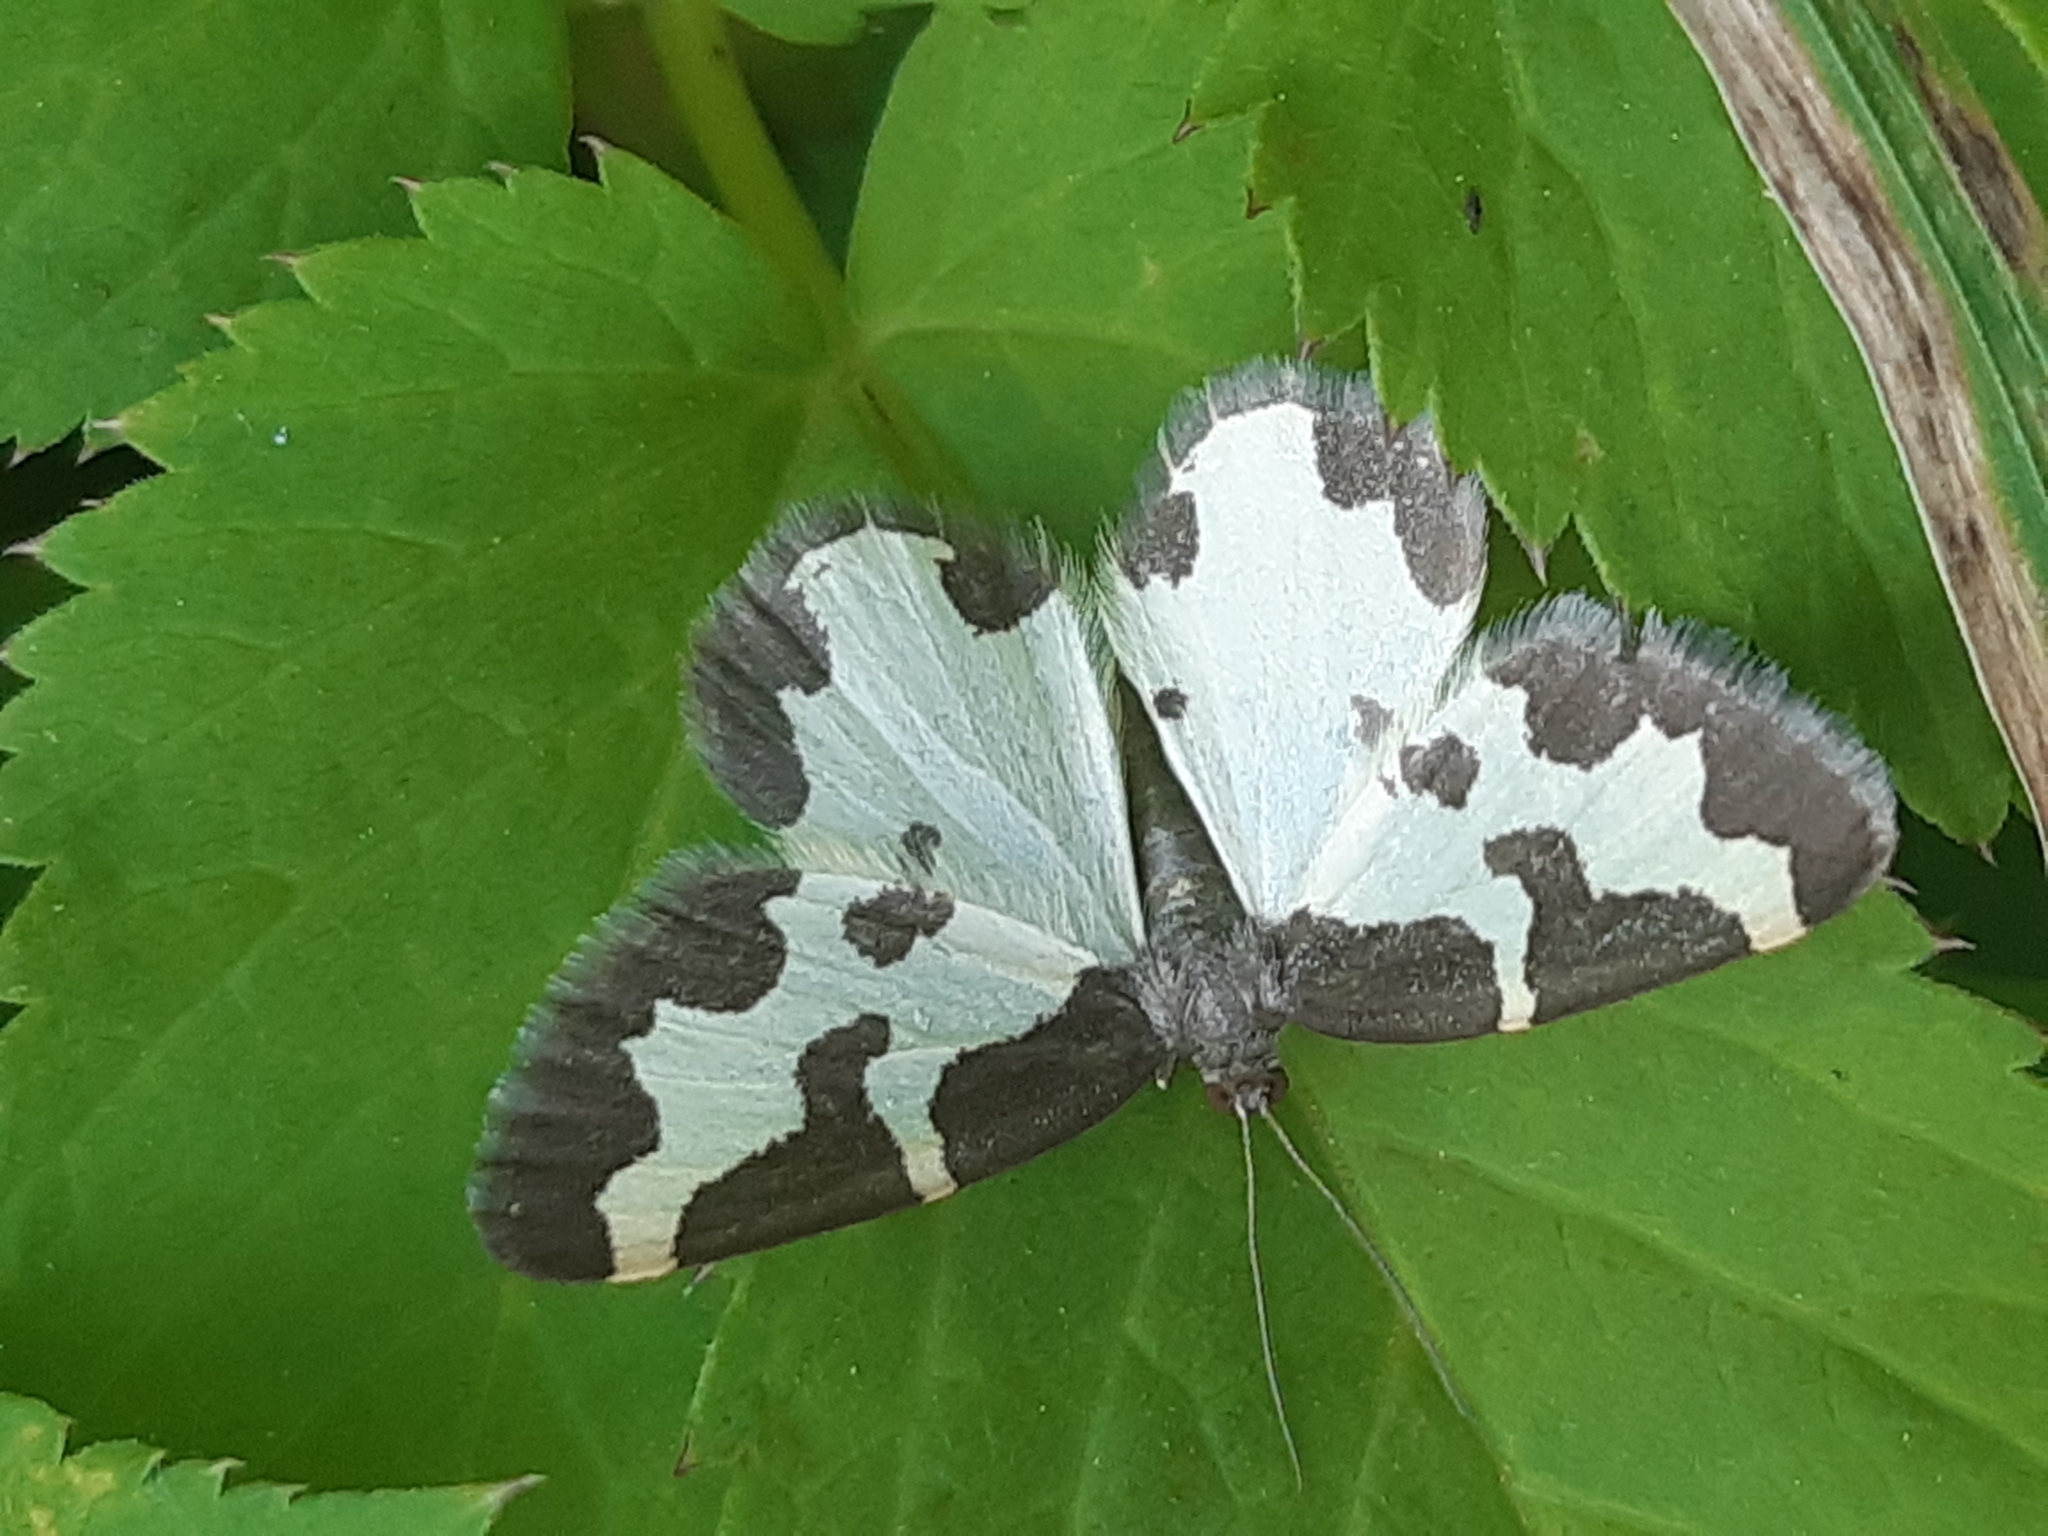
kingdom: Animalia
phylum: Arthropoda
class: Insecta
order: Lepidoptera
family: Geometridae
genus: Lomaspilis
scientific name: Lomaspilis marginata
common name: Clouded border
